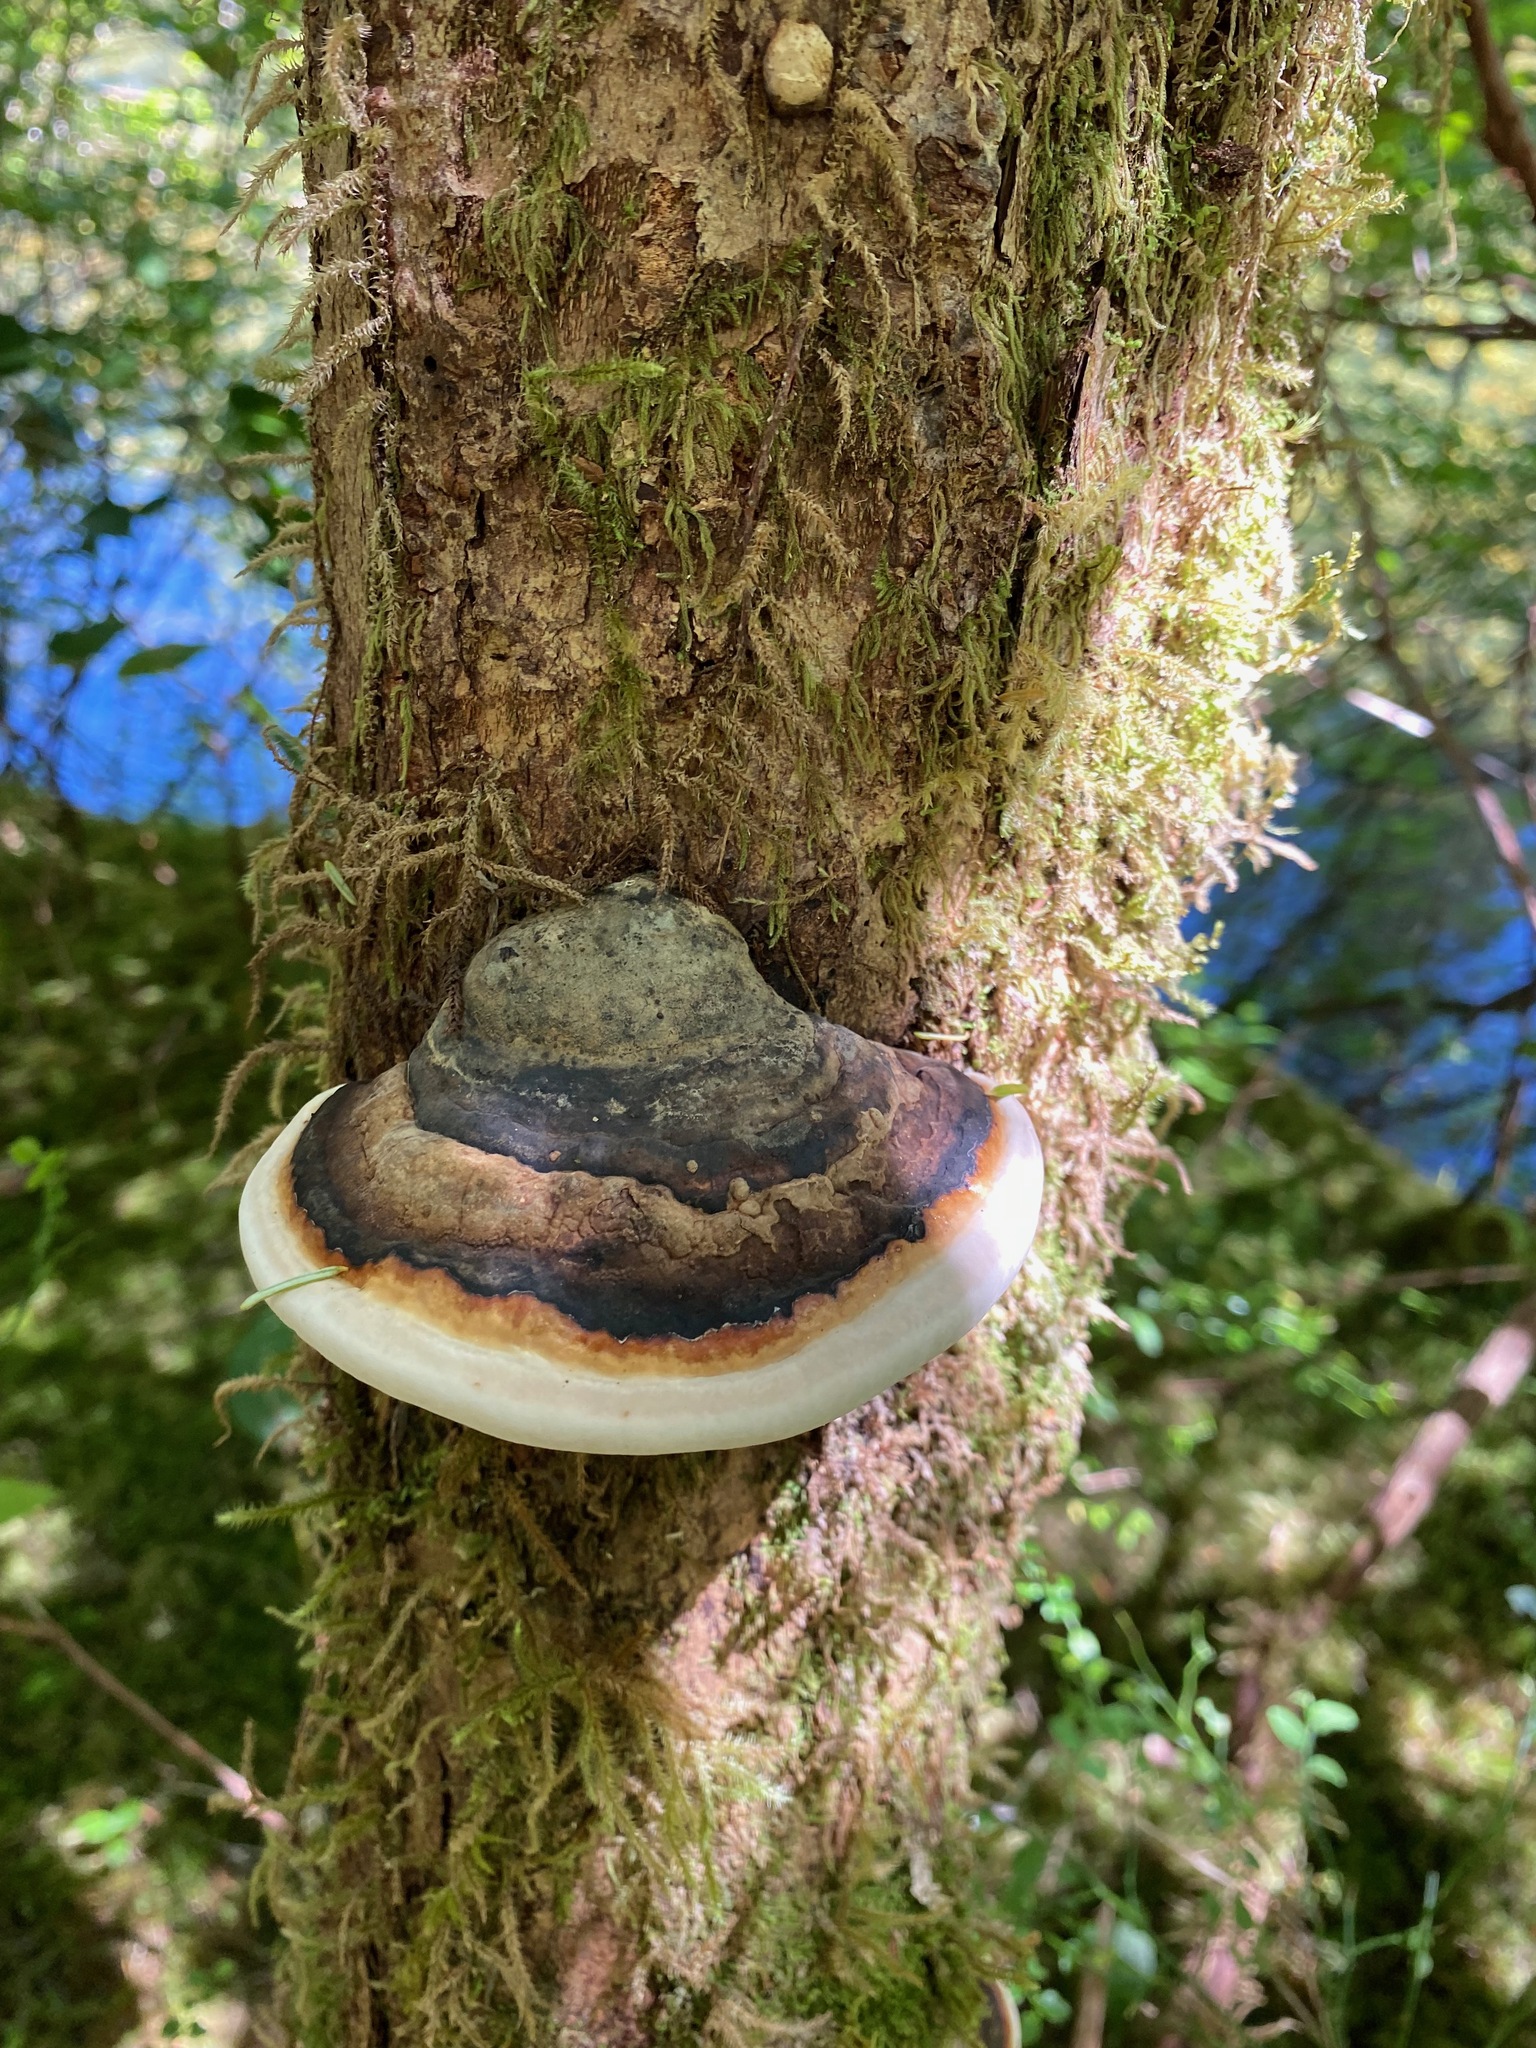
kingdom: Fungi
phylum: Basidiomycota
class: Agaricomycetes
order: Polyporales
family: Fomitopsidaceae
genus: Fomitopsis
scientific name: Fomitopsis mounceae
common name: Northern red belt
